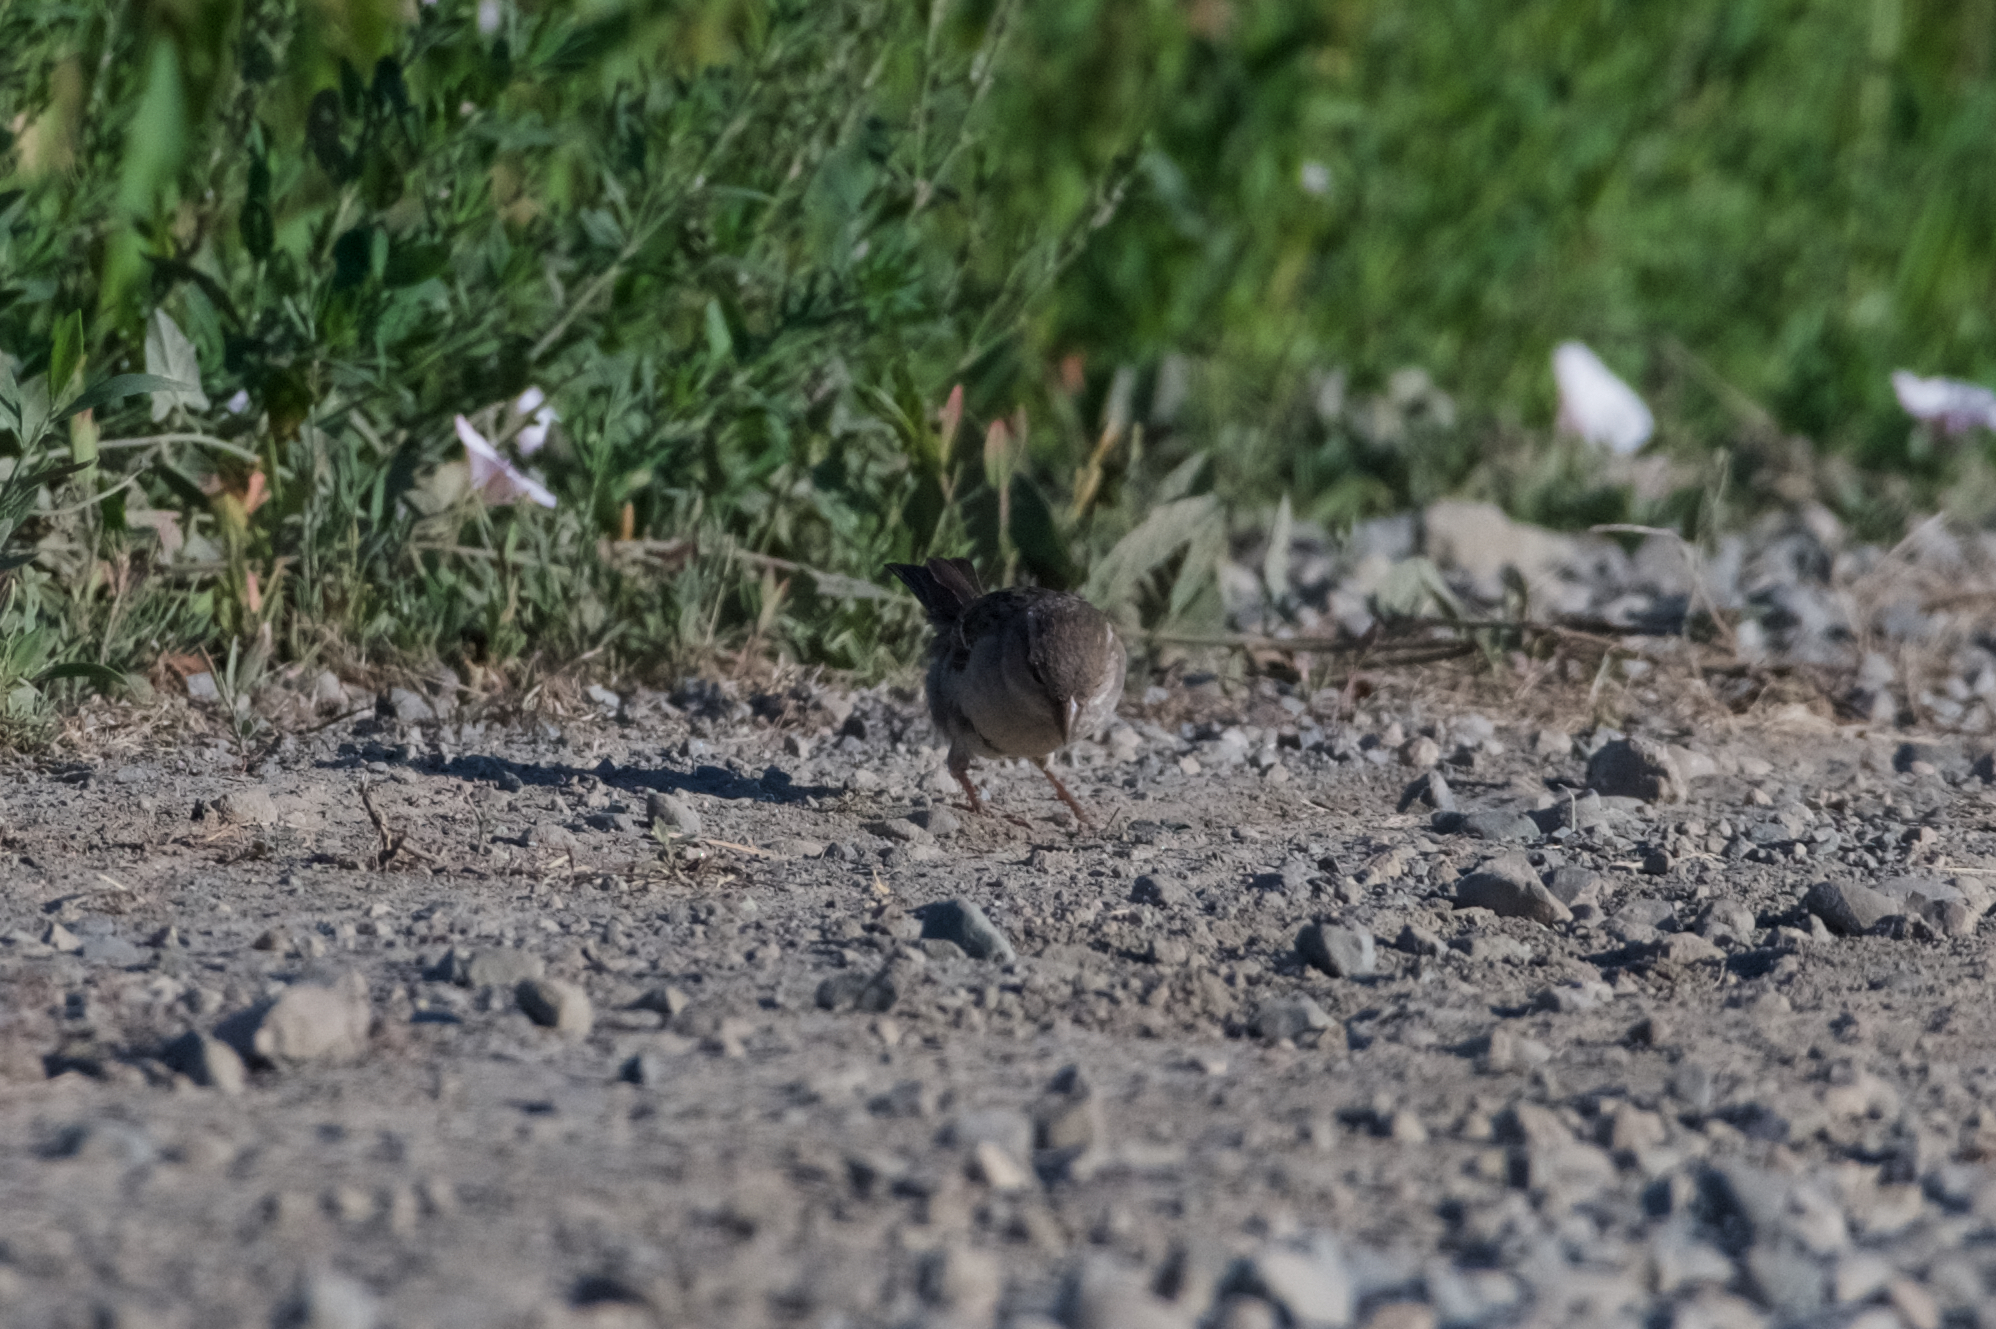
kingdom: Animalia
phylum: Chordata
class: Aves
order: Passeriformes
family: Passeridae
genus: Passer
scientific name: Passer domesticus
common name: House sparrow
